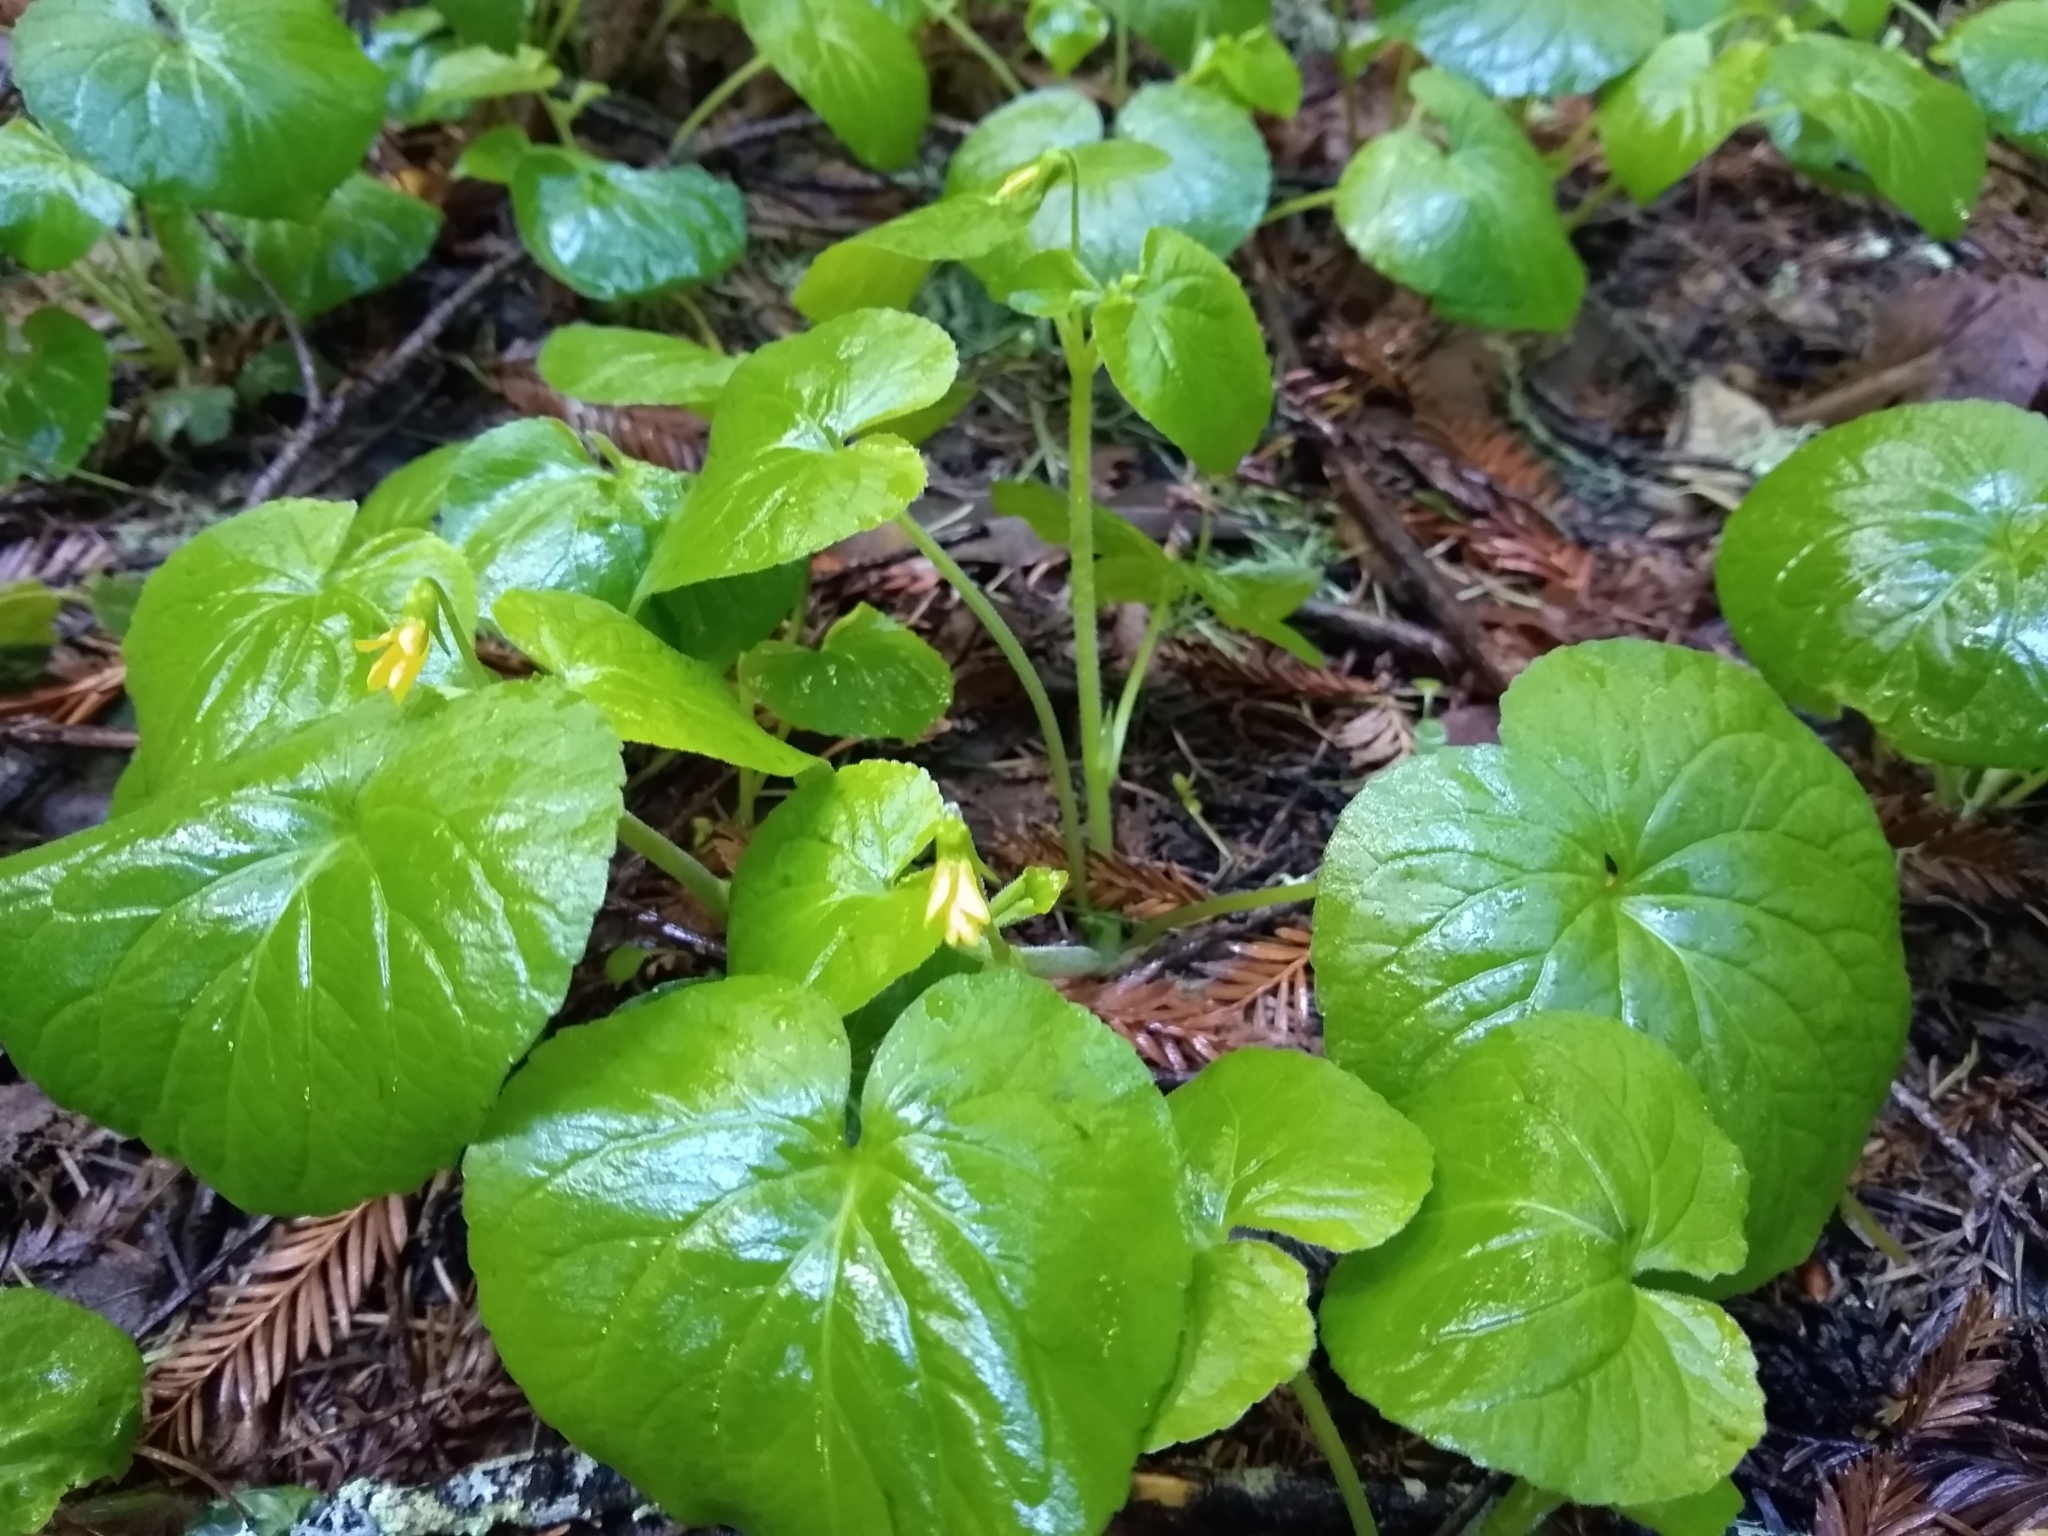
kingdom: Plantae
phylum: Tracheophyta
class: Magnoliopsida
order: Malpighiales
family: Violaceae
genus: Viola
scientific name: Viola glabella
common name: Stream violet
